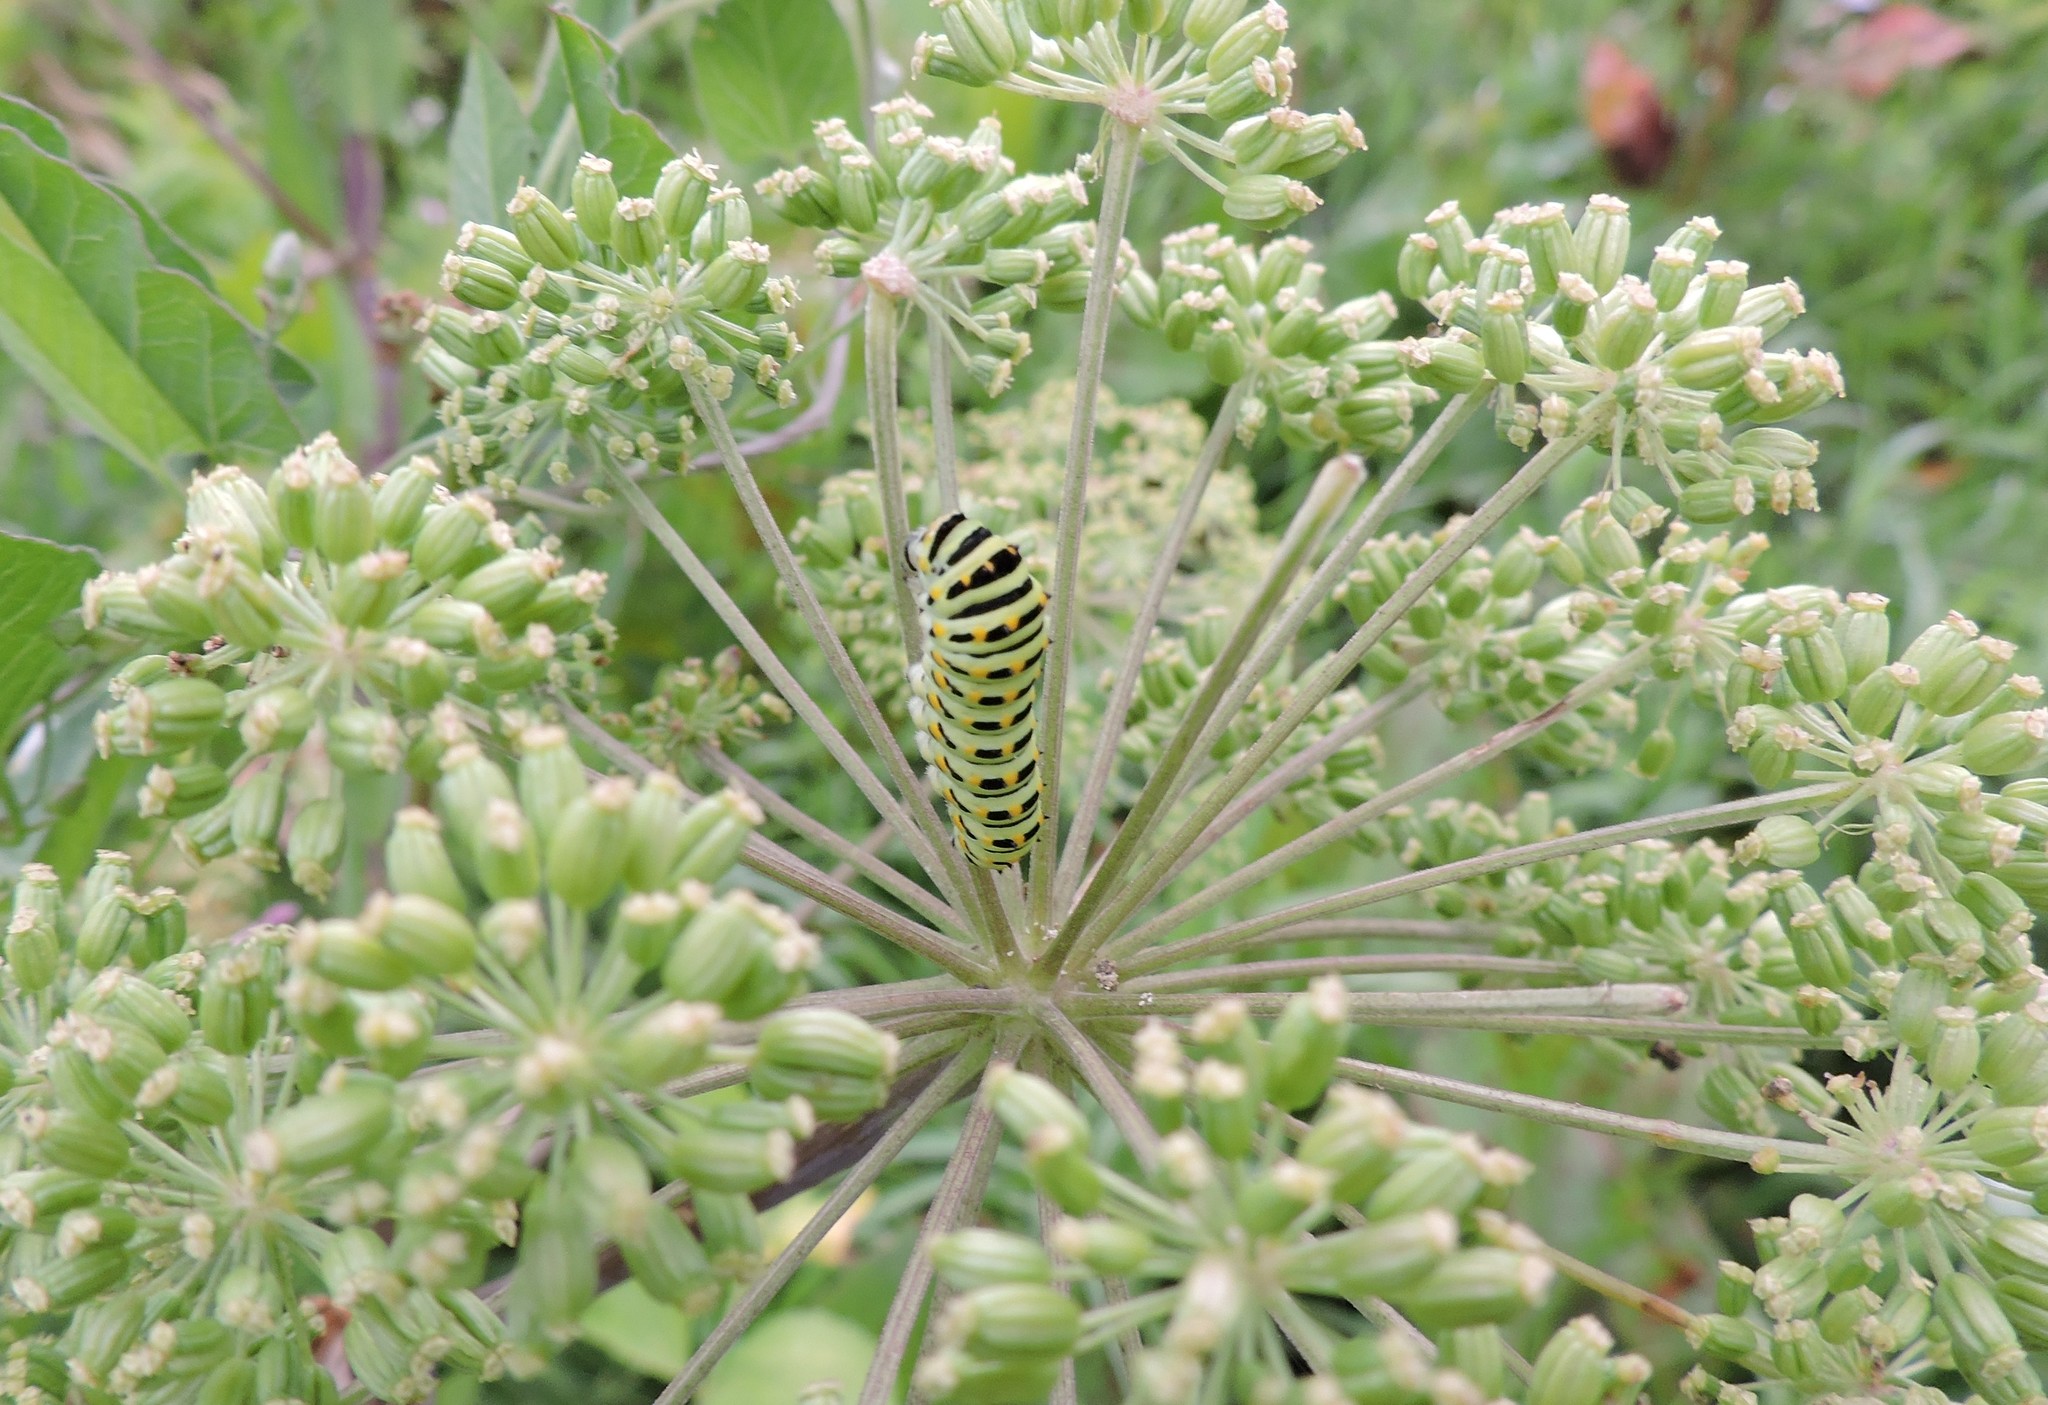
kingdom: Animalia
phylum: Arthropoda
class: Insecta
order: Lepidoptera
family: Papilionidae
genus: Papilio
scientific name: Papilio machaon
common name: Swallowtail
